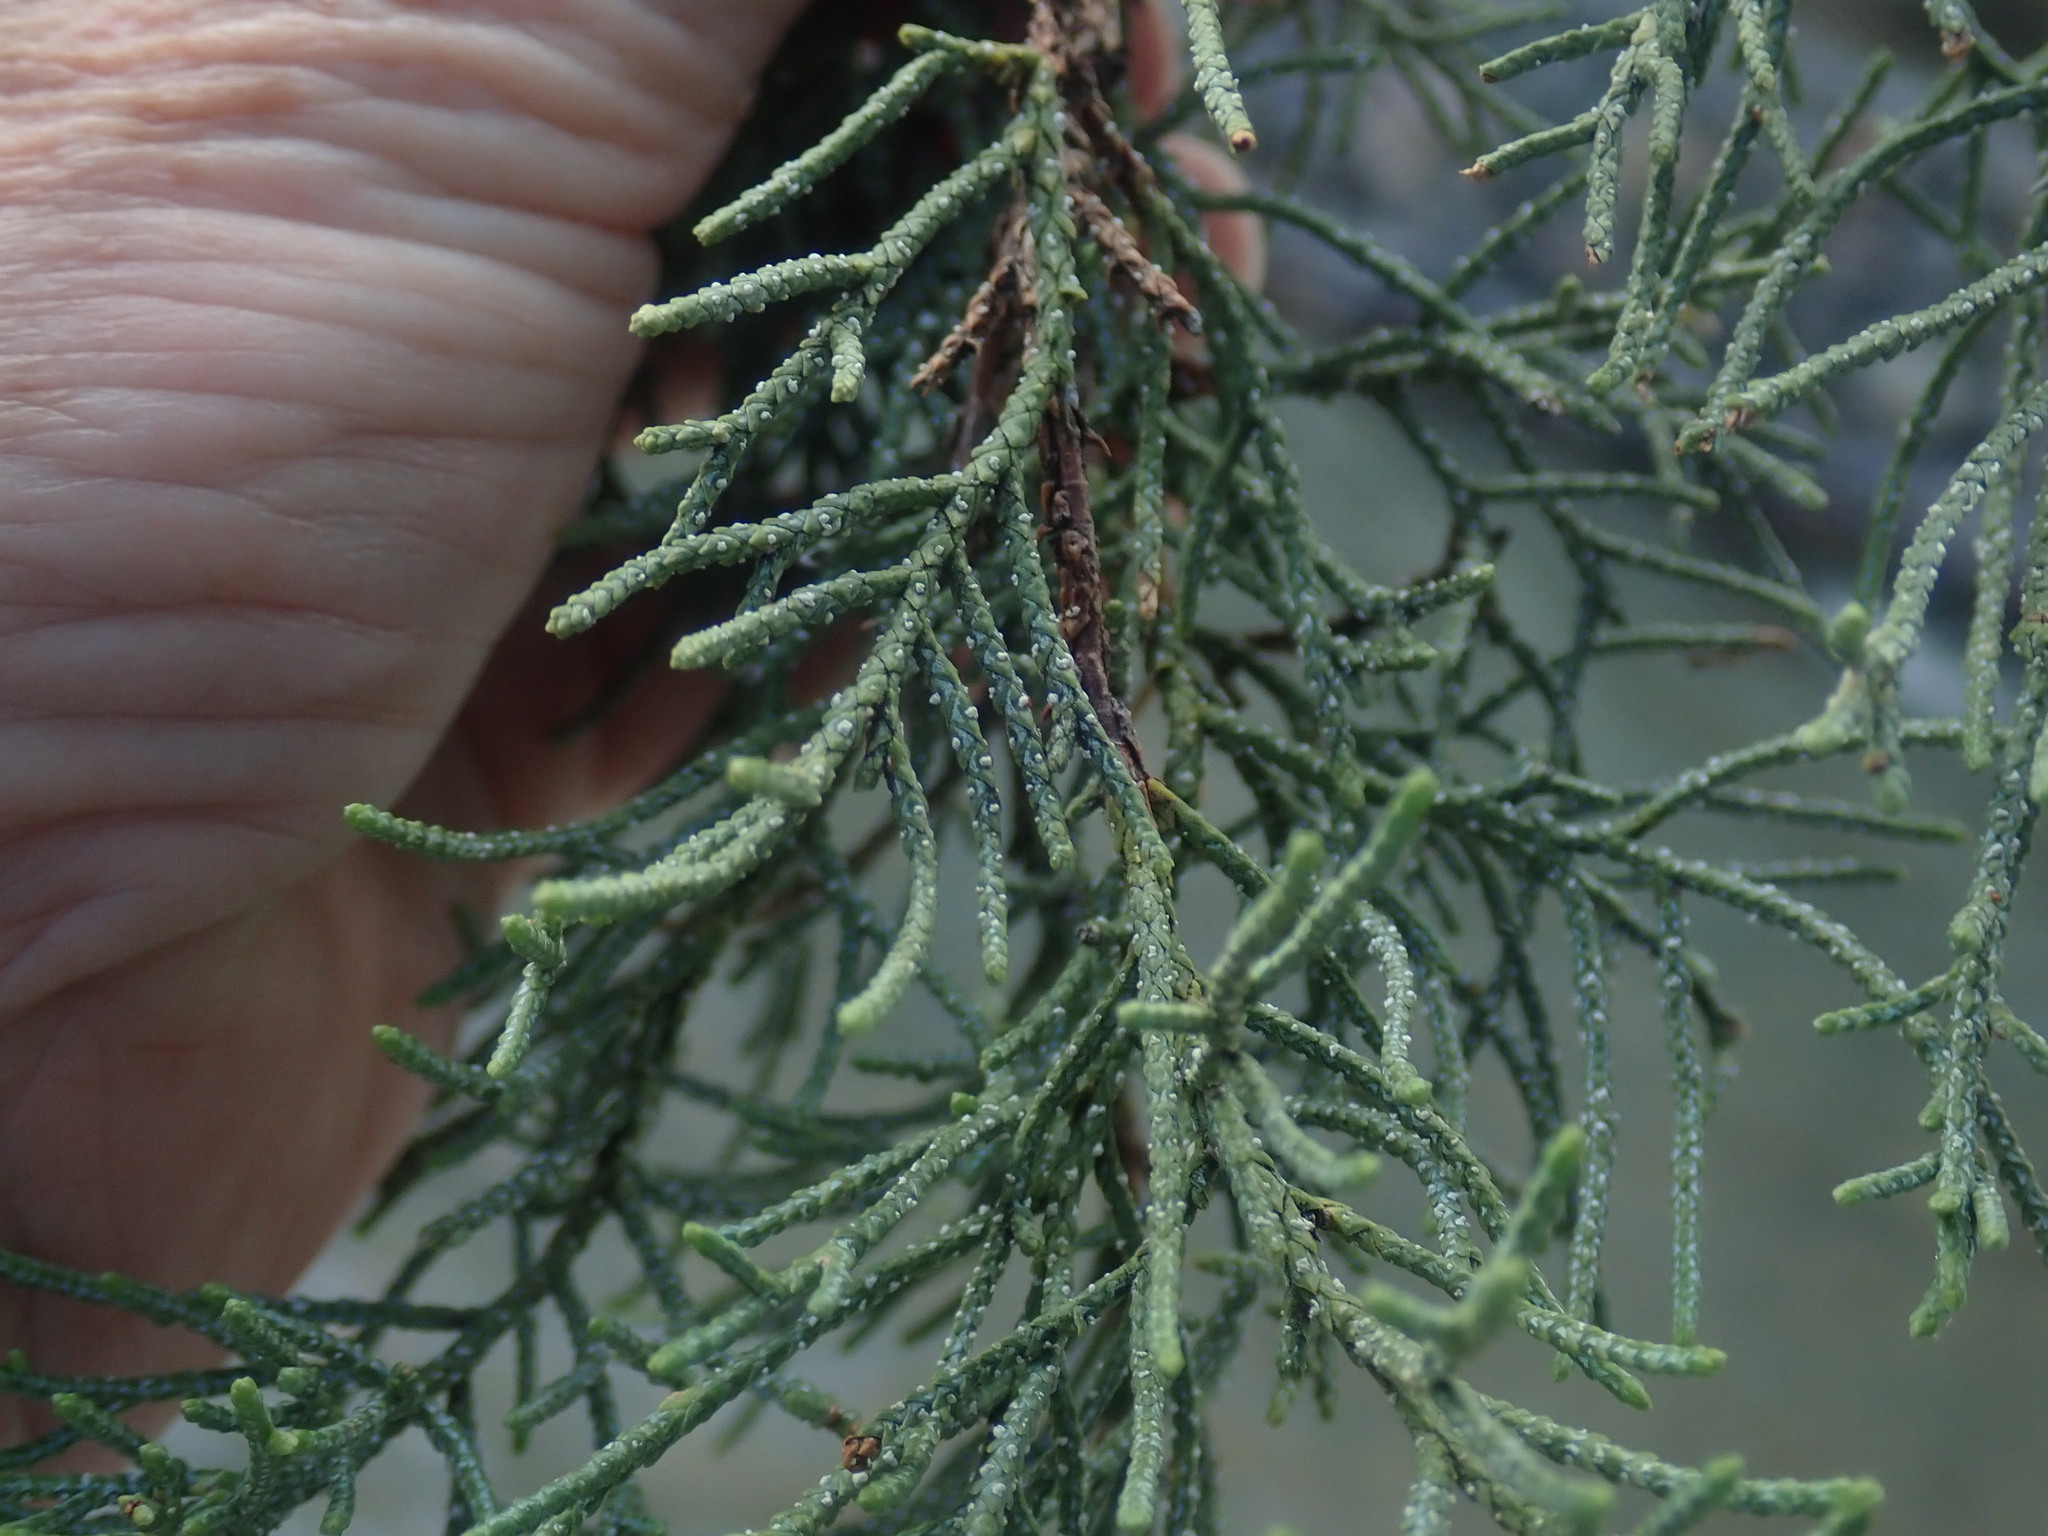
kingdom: Plantae
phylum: Tracheophyta
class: Pinopsida
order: Pinales
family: Cupressaceae
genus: Juniperus
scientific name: Juniperus deppeana
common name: Alligator juniper
